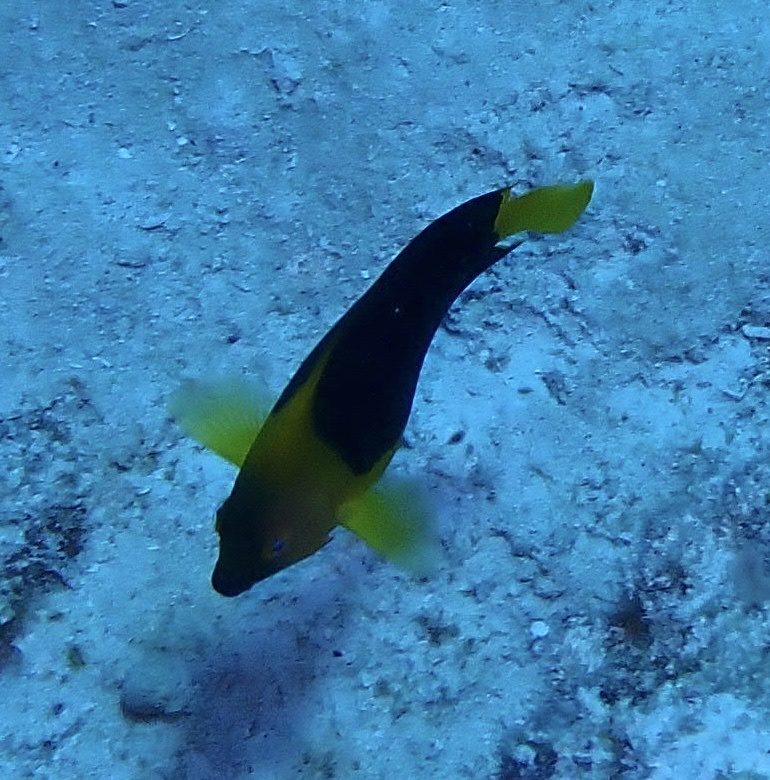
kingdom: Animalia
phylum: Chordata
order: Perciformes
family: Pomacanthidae
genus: Holacanthus
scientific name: Holacanthus tricolor
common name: Rock beauty
